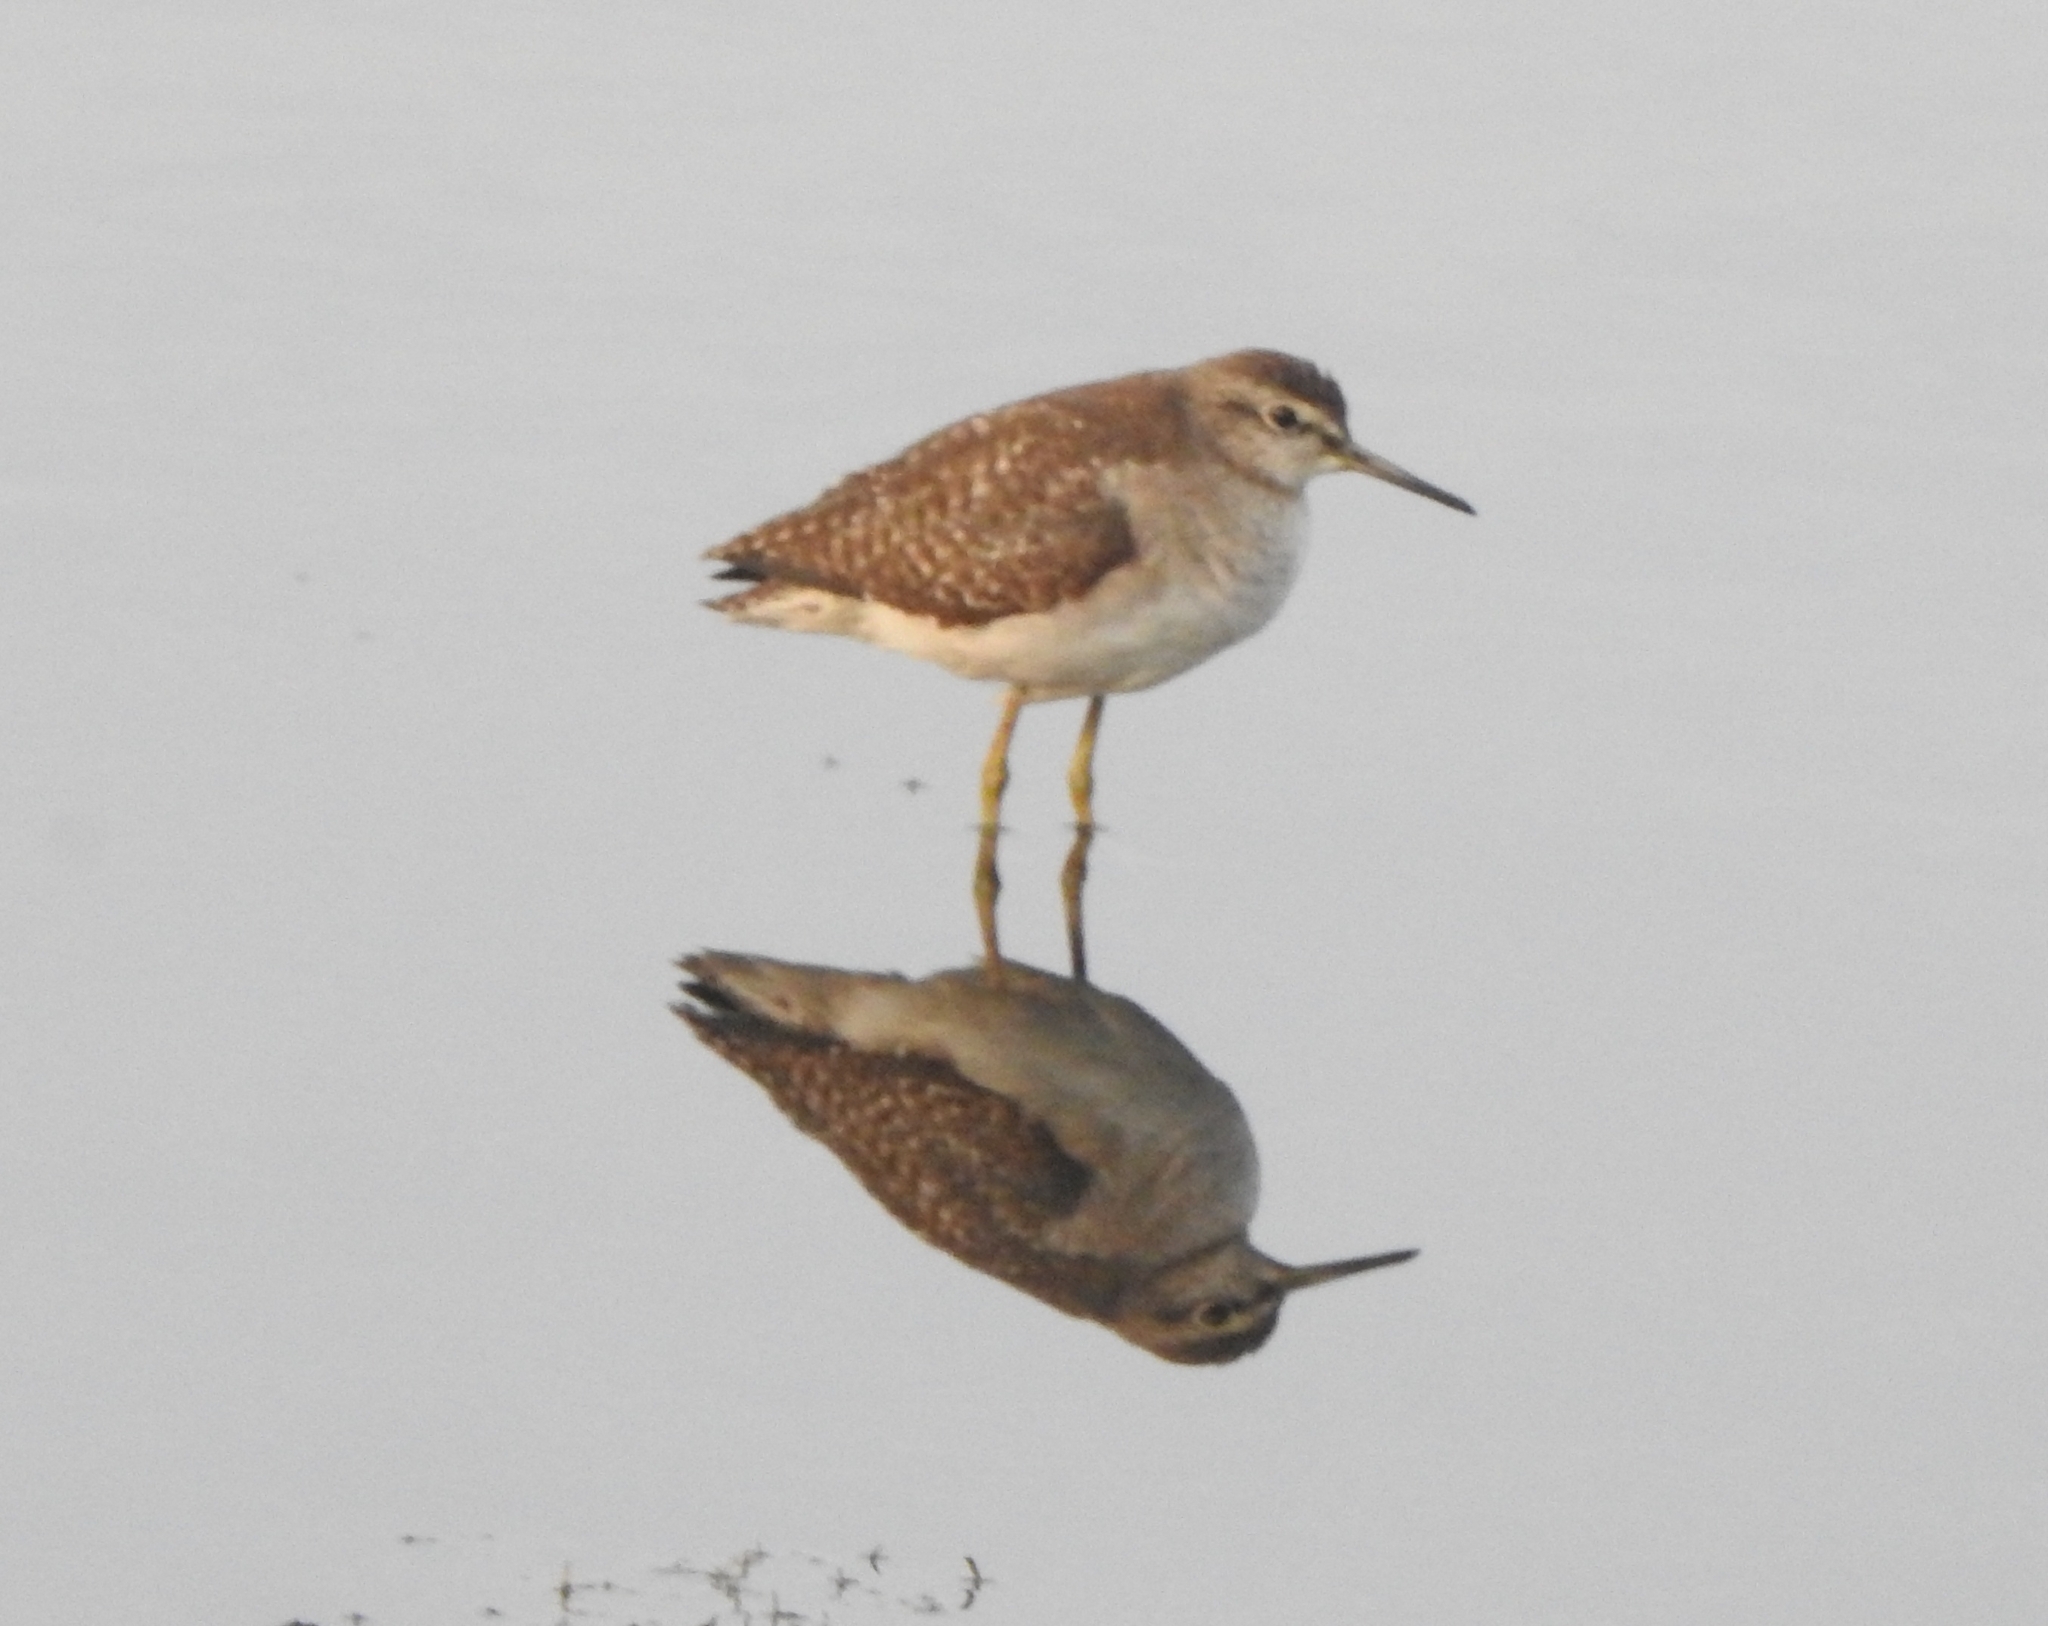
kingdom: Animalia
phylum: Chordata
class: Aves
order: Charadriiformes
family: Scolopacidae
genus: Tringa
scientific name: Tringa glareola
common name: Wood sandpiper
